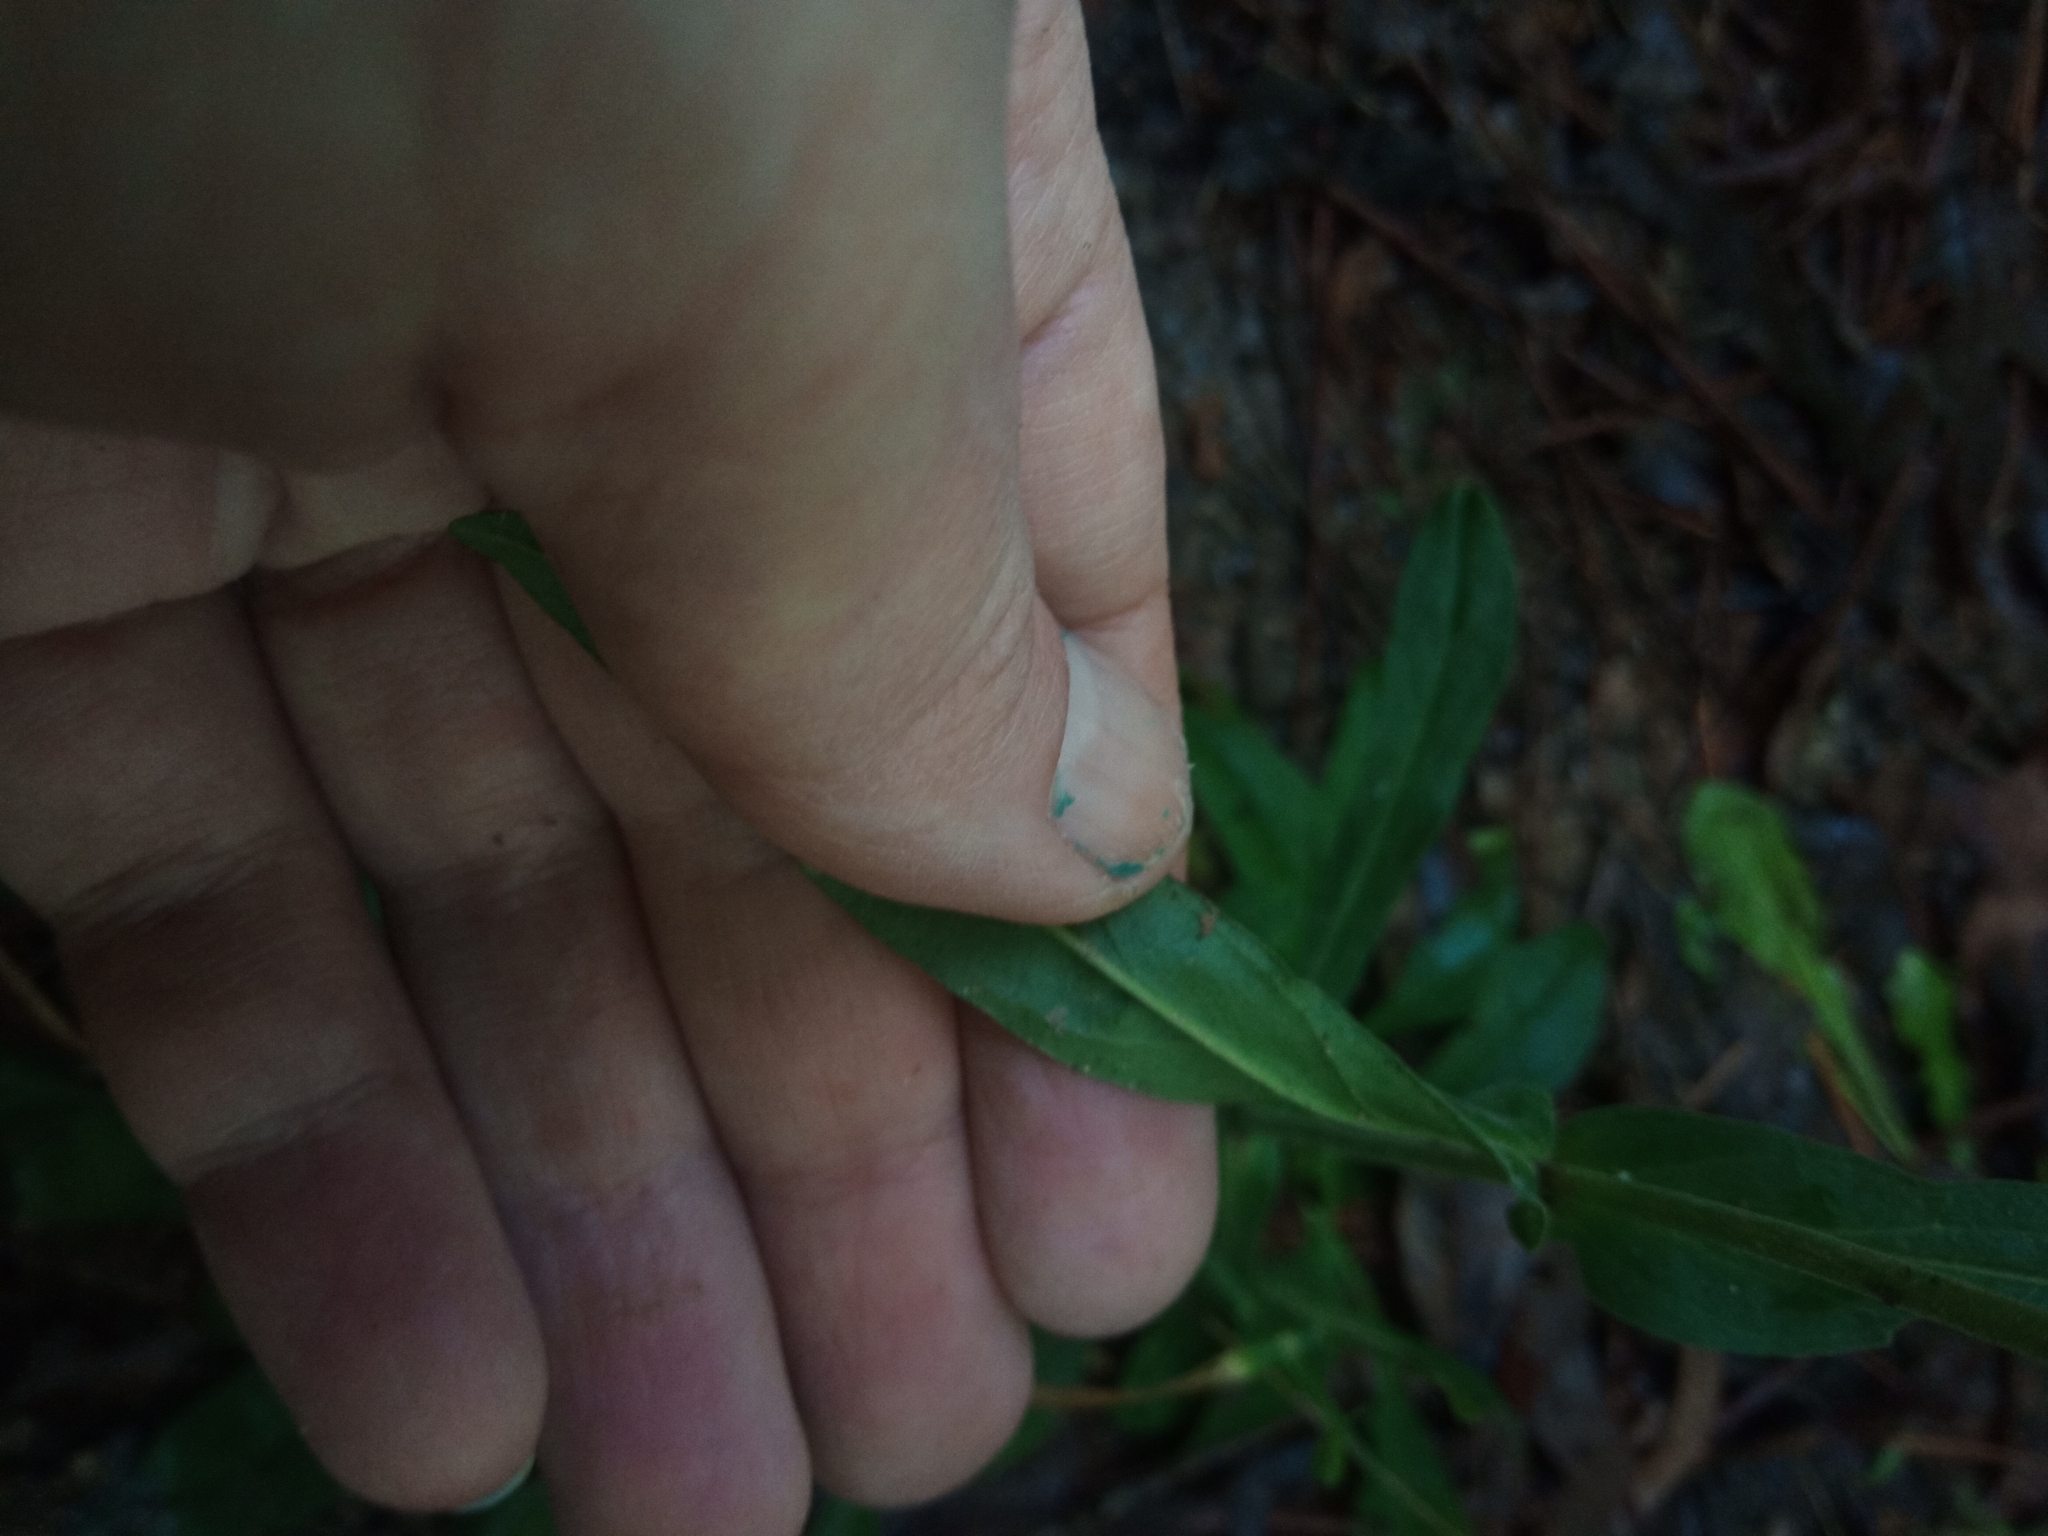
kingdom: Plantae
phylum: Tracheophyta
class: Magnoliopsida
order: Lamiales
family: Plantaginaceae
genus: Penstemon
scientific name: Penstemon laevigatus
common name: Eastern beardtongue
